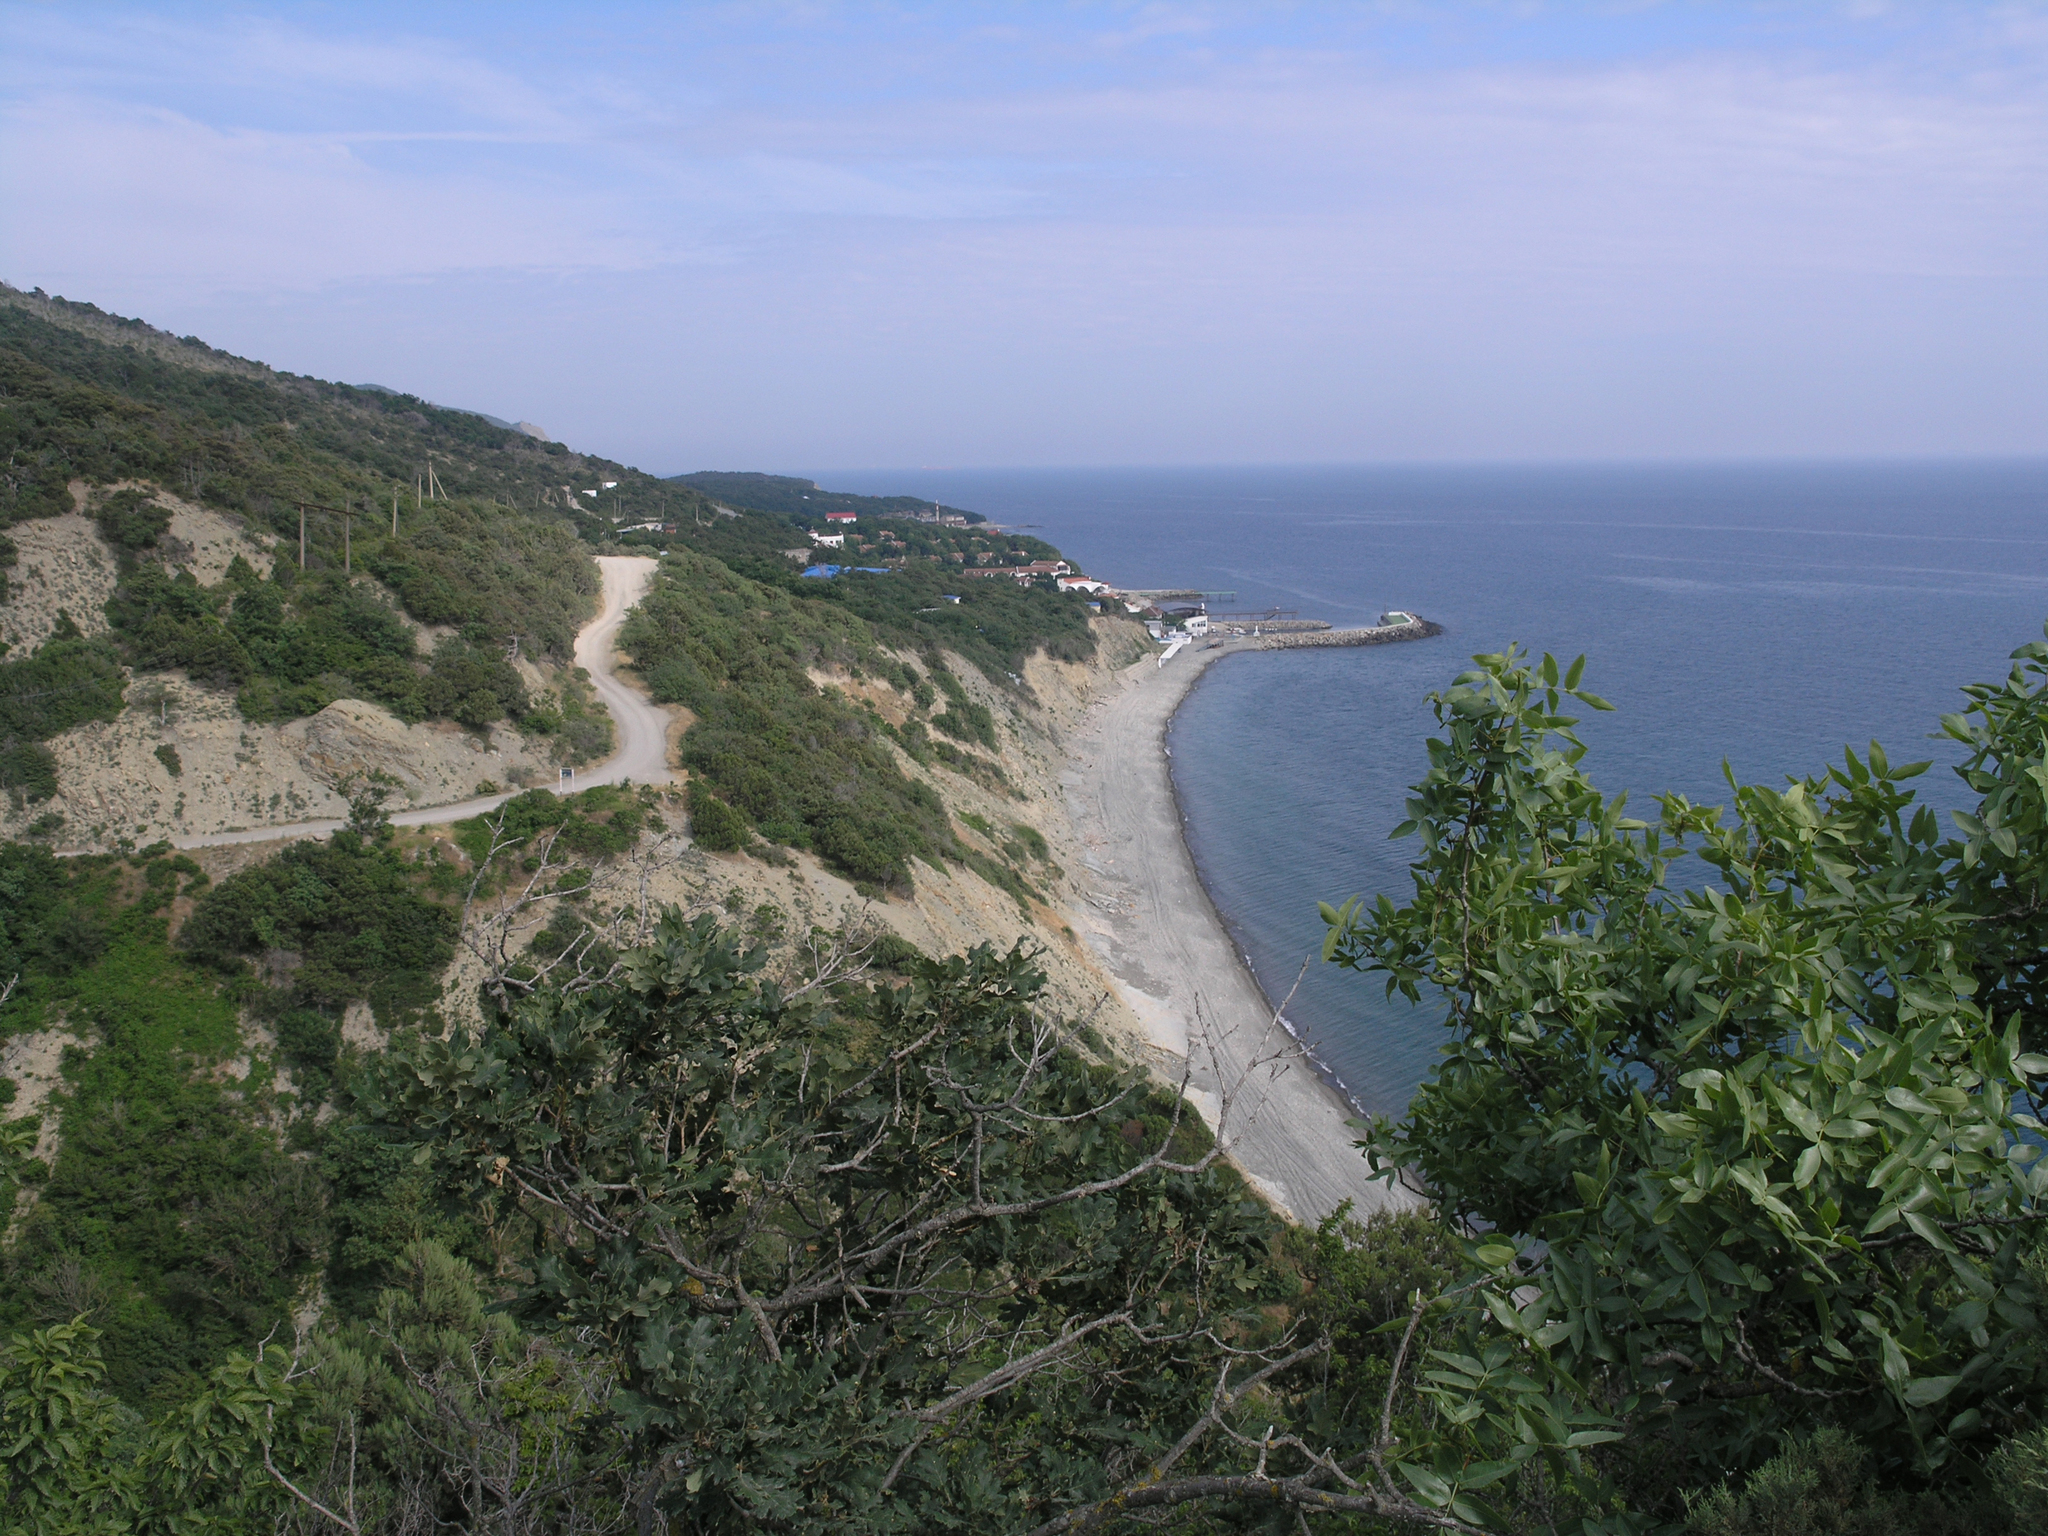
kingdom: Plantae
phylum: Tracheophyta
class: Magnoliopsida
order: Sapindales
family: Anacardiaceae
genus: Pistacia
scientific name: Pistacia atlantica
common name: Mt. atlas mastic tree
